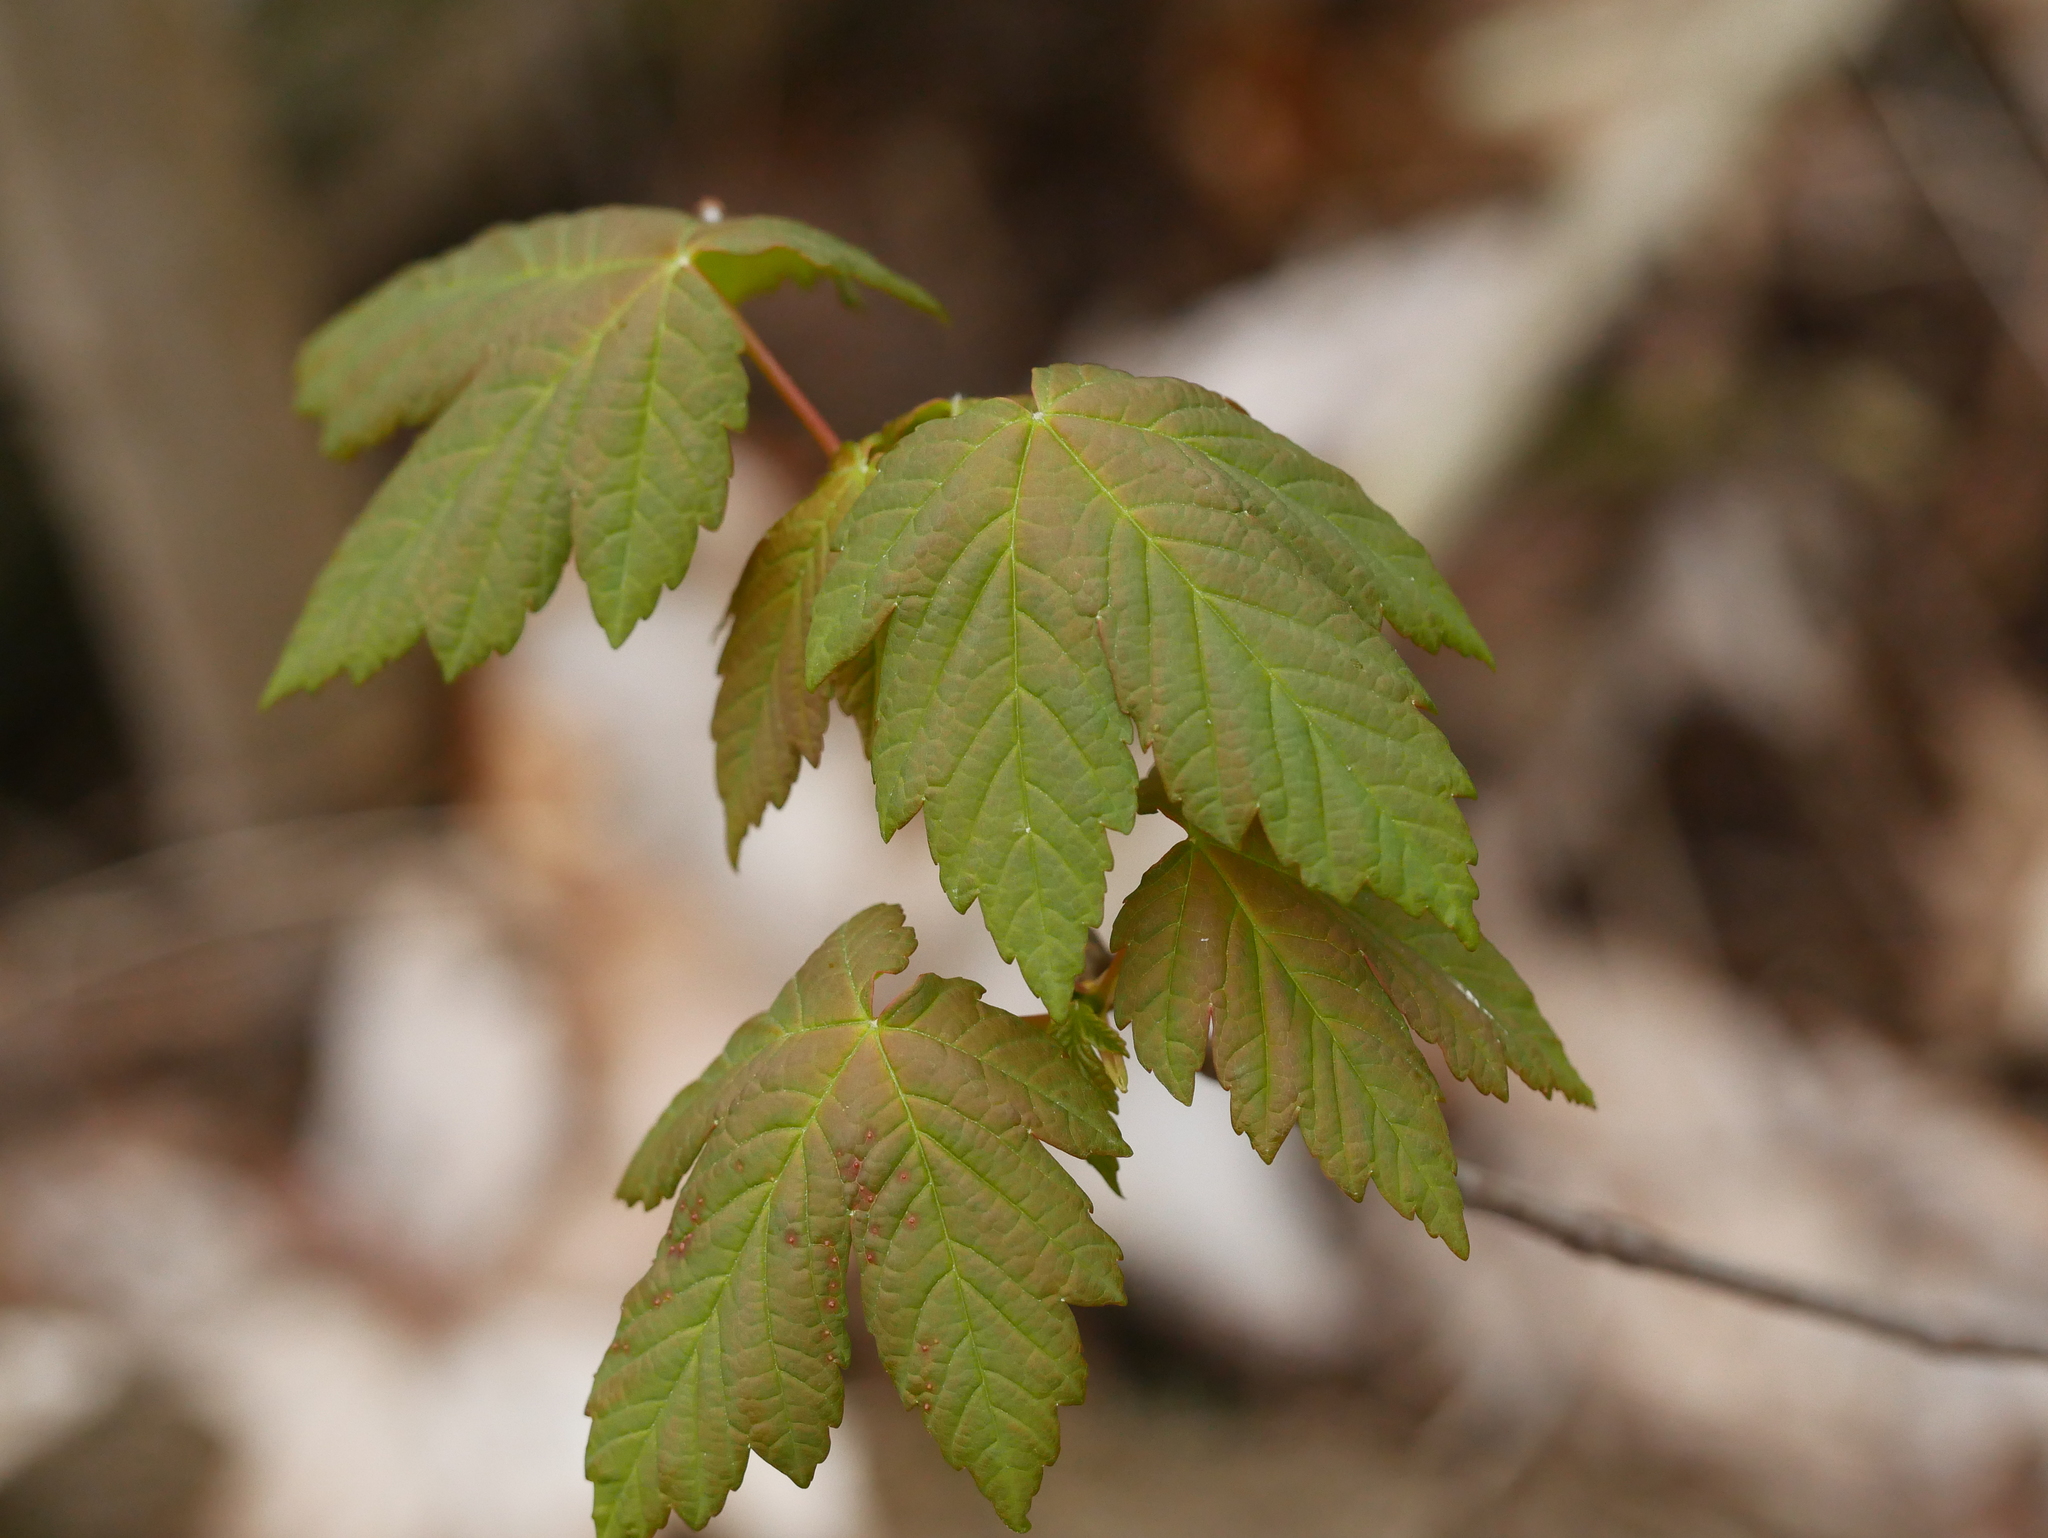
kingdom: Plantae
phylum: Tracheophyta
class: Magnoliopsida
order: Sapindales
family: Sapindaceae
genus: Acer
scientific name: Acer pseudoplatanus
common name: Sycamore
